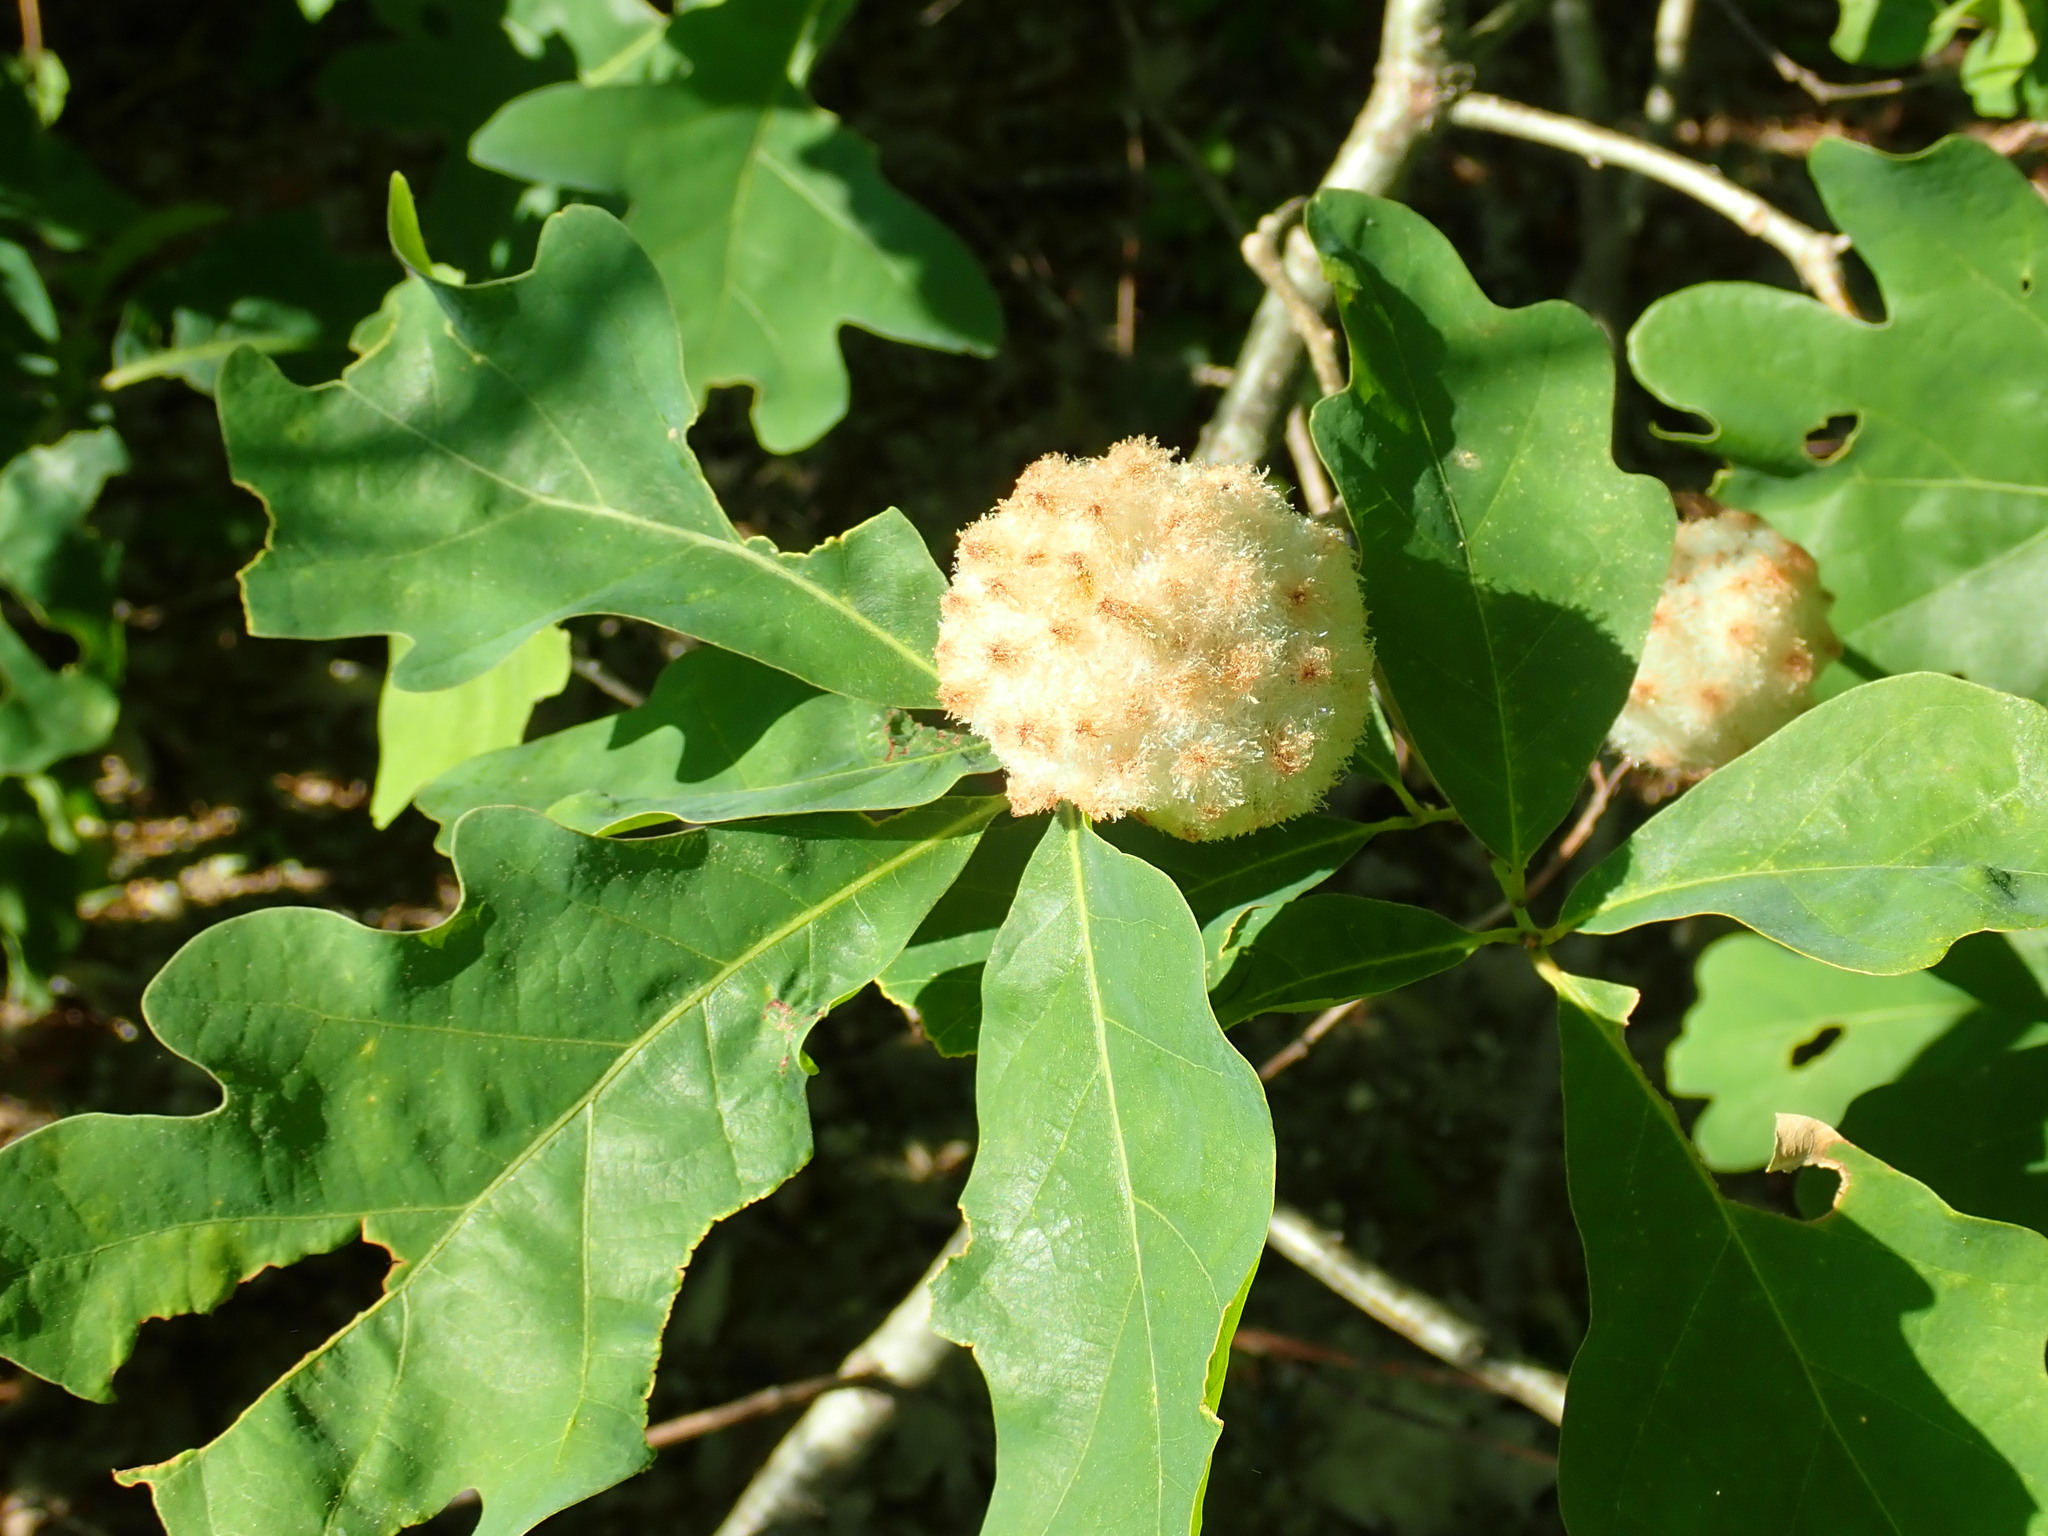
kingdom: Animalia
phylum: Arthropoda
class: Insecta
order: Hymenoptera
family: Cynipidae
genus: Callirhytis
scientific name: Callirhytis
